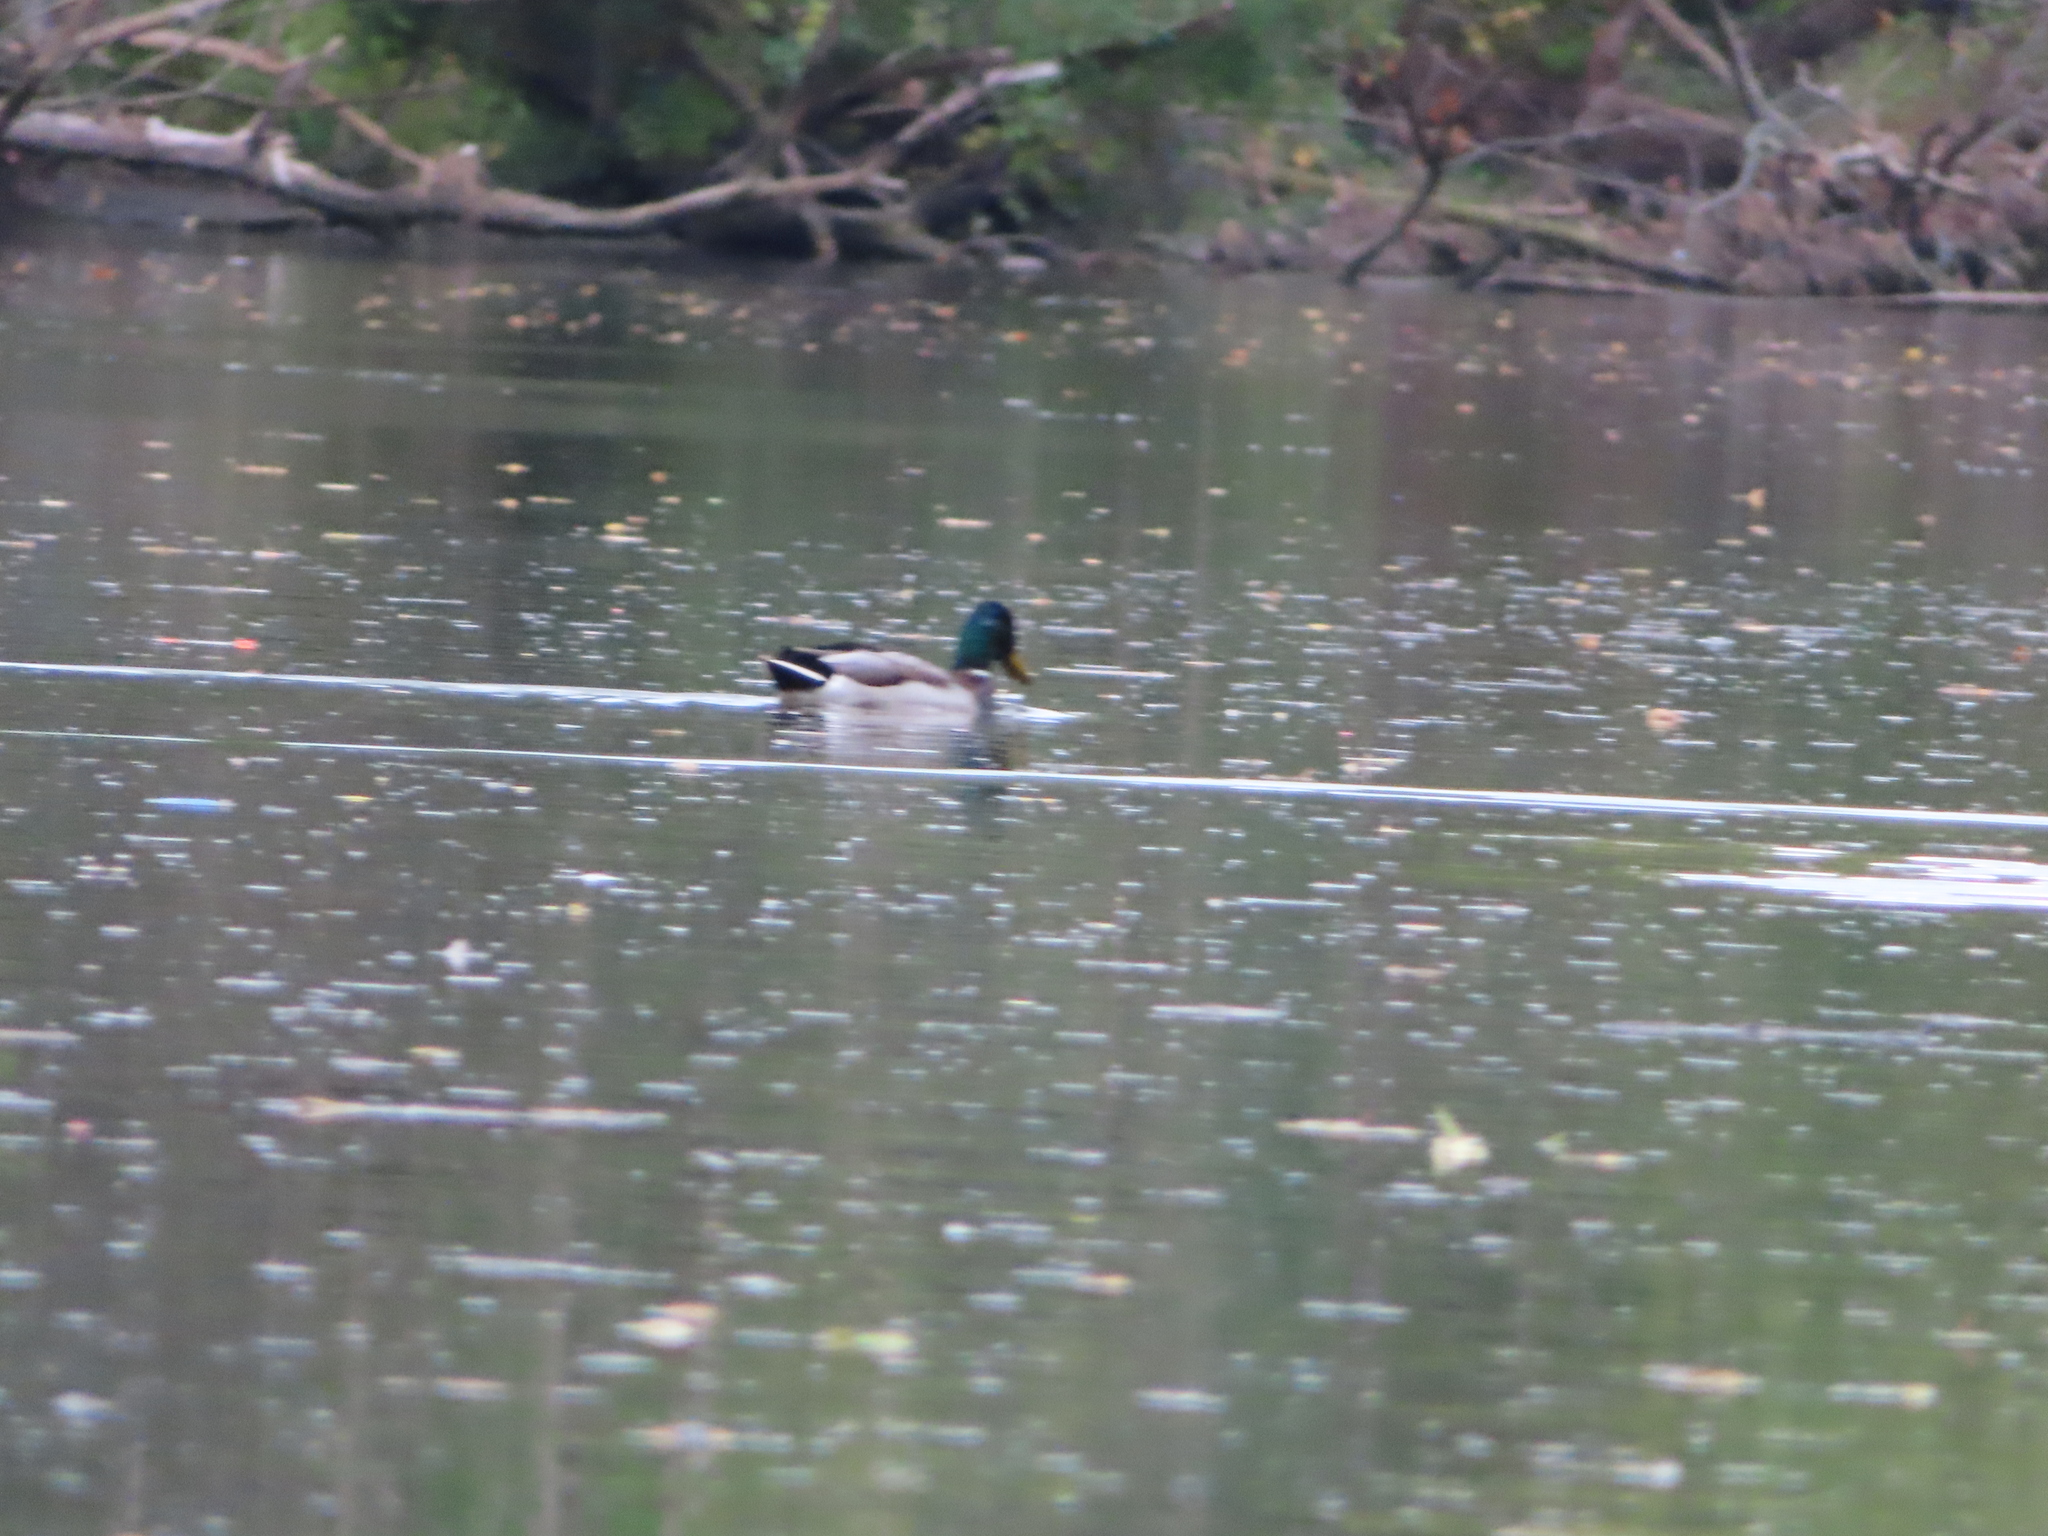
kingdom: Animalia
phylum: Chordata
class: Aves
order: Anseriformes
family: Anatidae
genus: Anas
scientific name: Anas platyrhynchos
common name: Mallard
